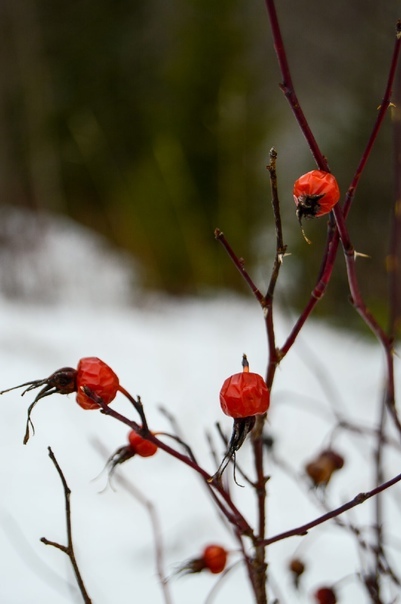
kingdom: Plantae
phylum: Tracheophyta
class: Magnoliopsida
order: Rosales
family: Rosaceae
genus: Rosa
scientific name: Rosa
